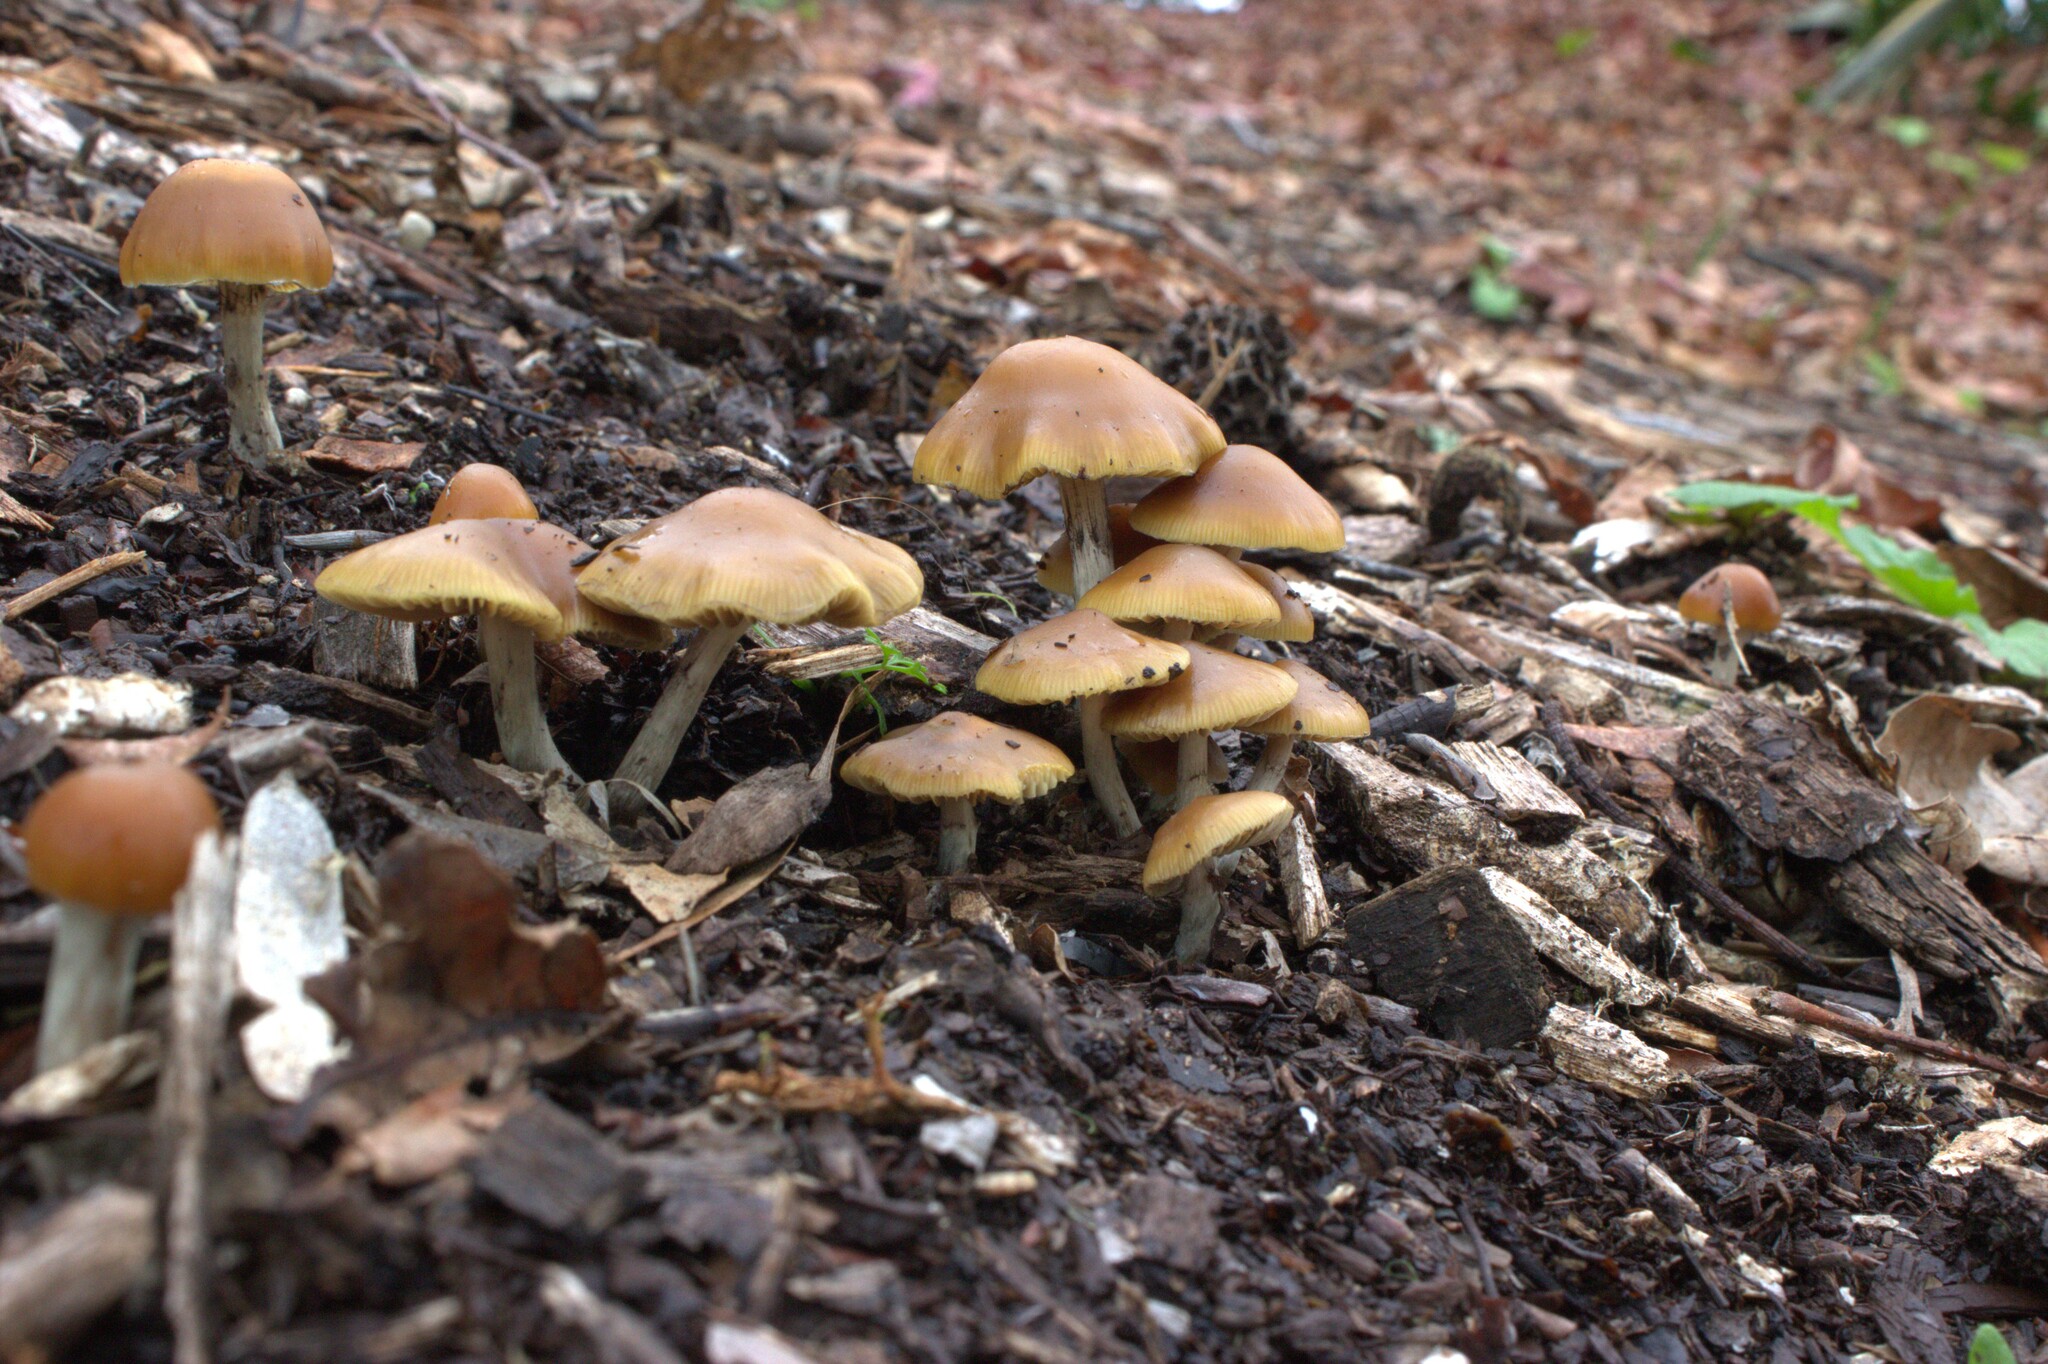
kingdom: Fungi
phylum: Basidiomycota
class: Agaricomycetes
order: Agaricales
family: Hymenogastraceae
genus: Psilocybe
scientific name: Psilocybe subaeruginosa
